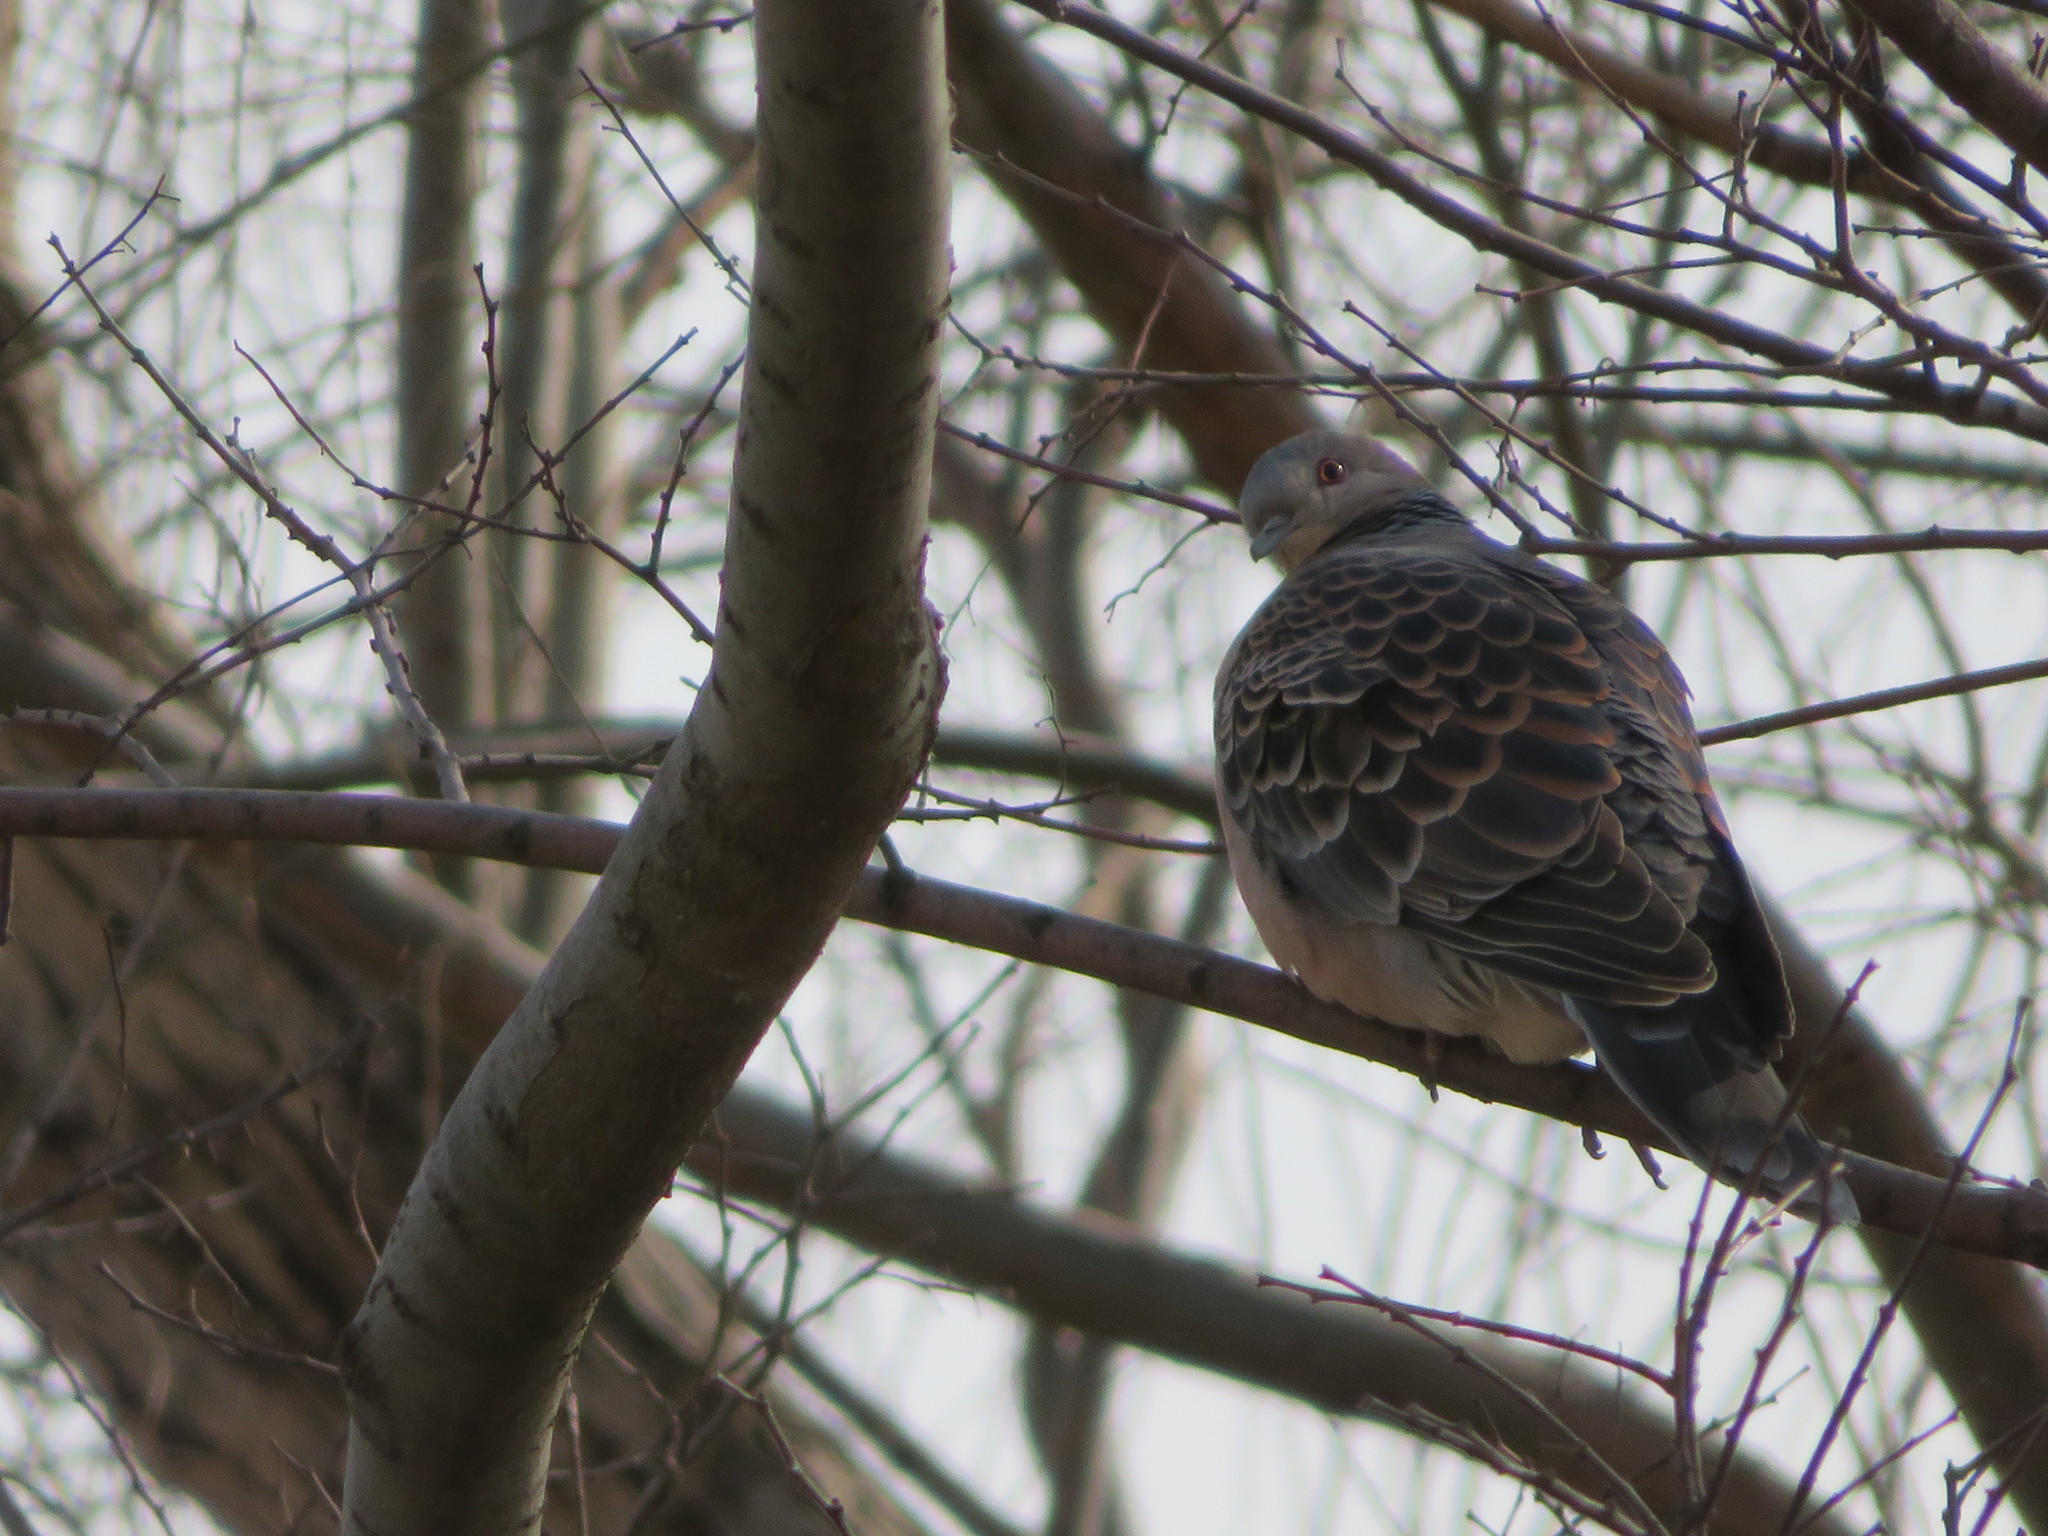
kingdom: Animalia
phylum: Chordata
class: Aves
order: Columbiformes
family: Columbidae
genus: Streptopelia
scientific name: Streptopelia orientalis
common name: Oriental turtle dove
